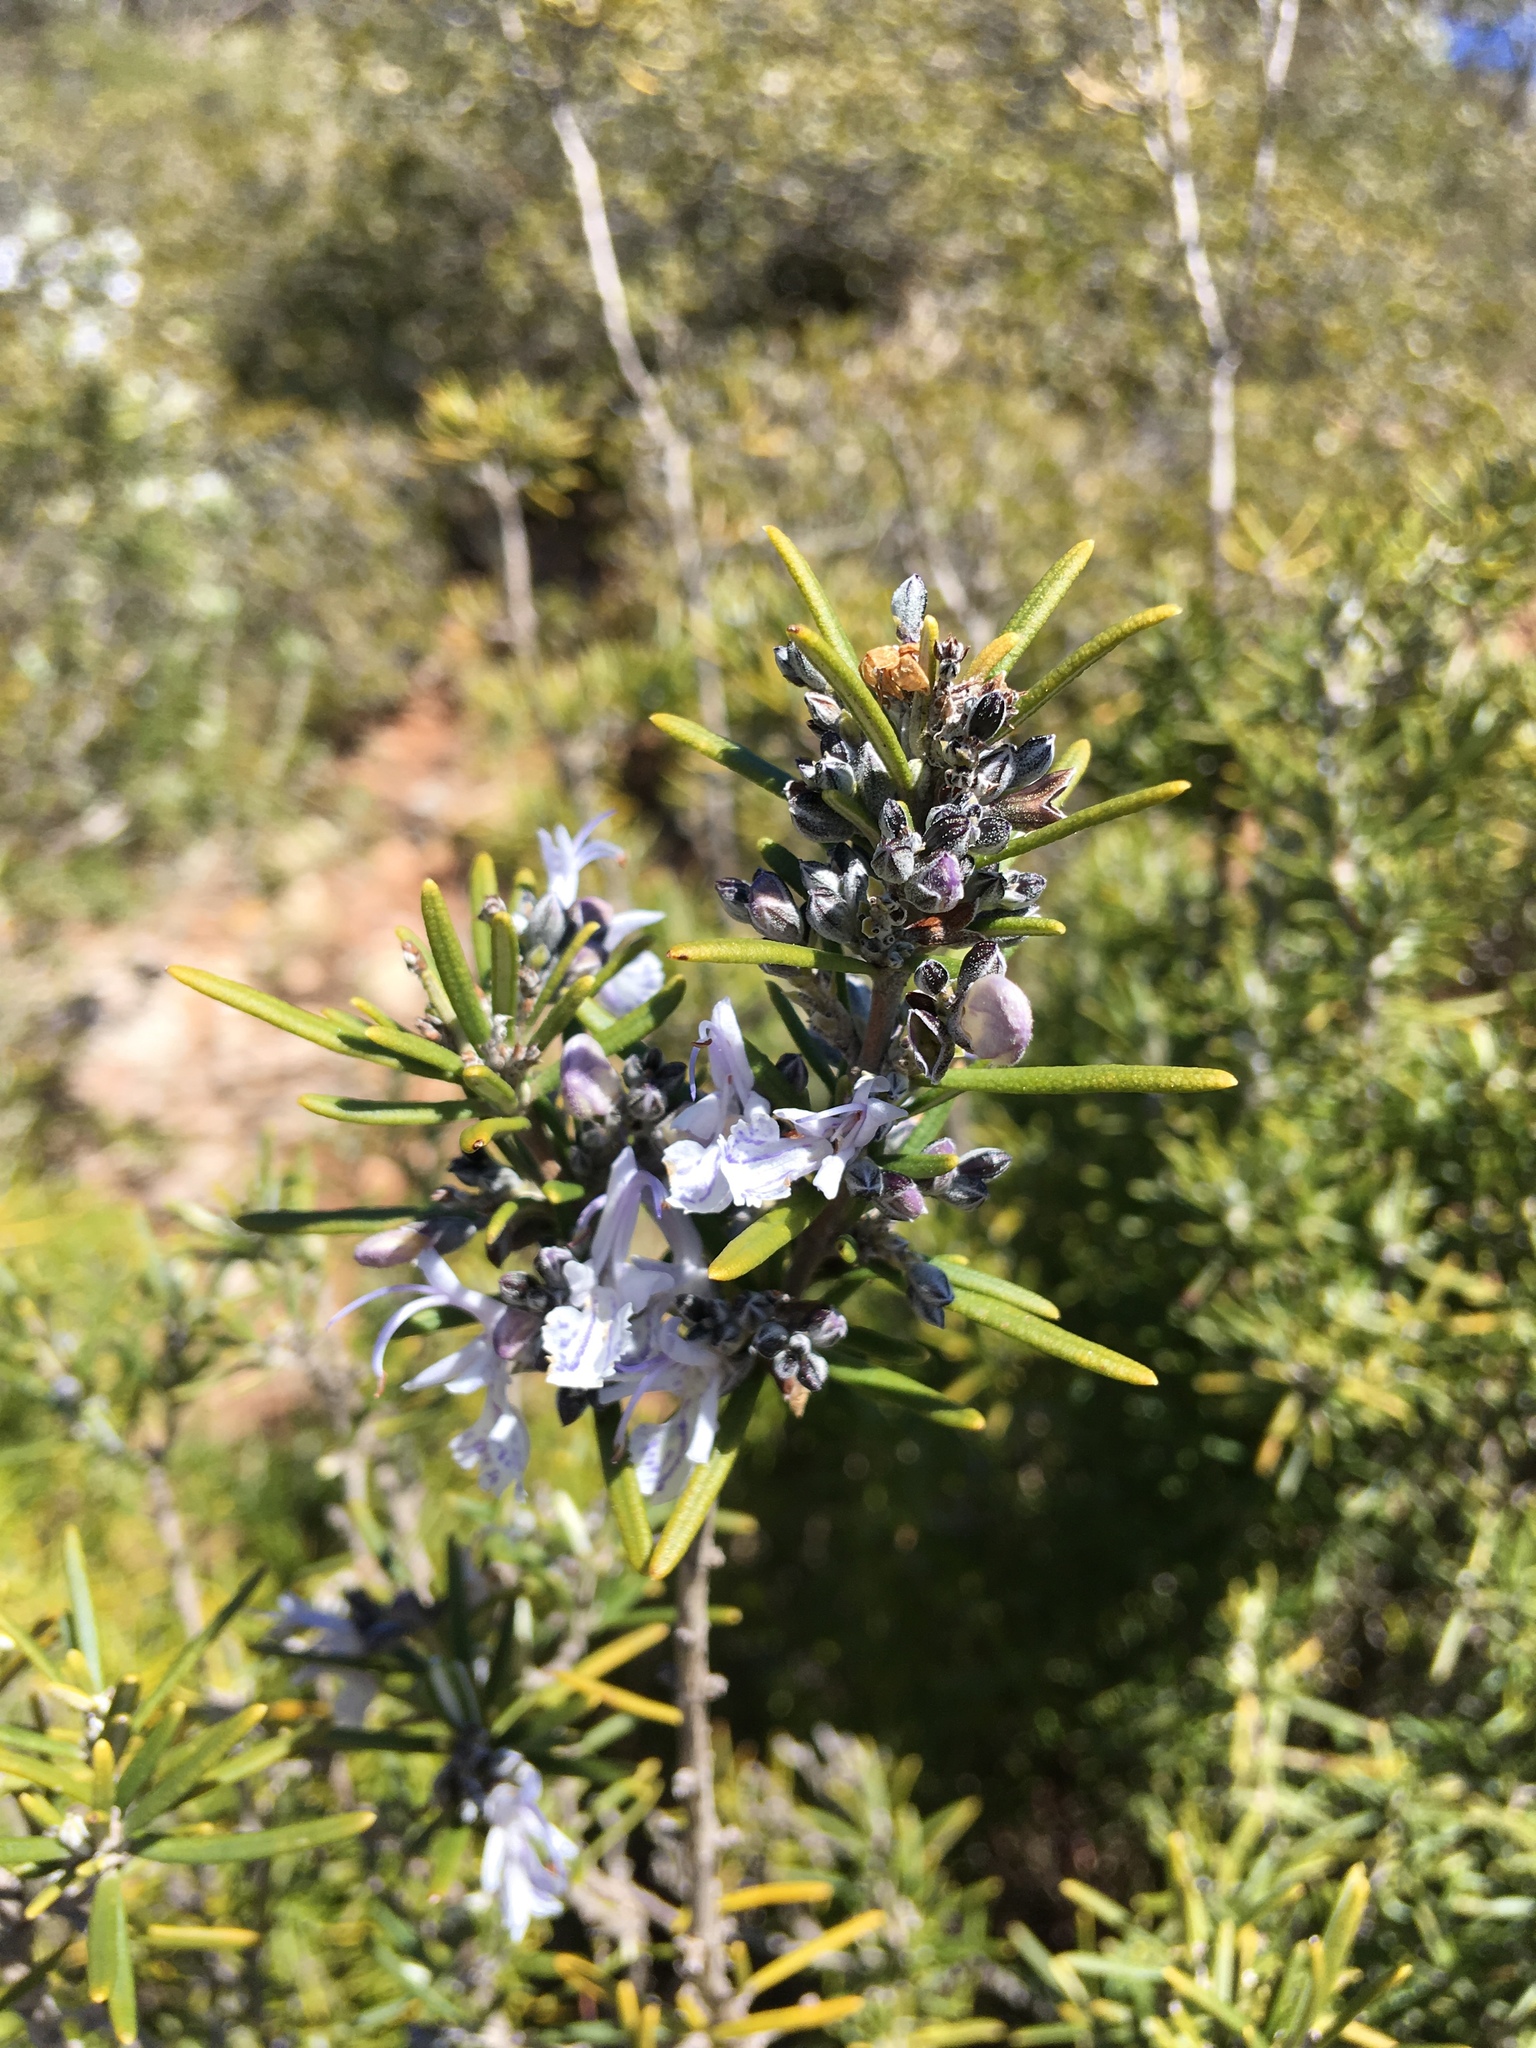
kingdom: Plantae
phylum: Tracheophyta
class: Magnoliopsida
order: Lamiales
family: Lamiaceae
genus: Salvia
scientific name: Salvia rosmarinus
